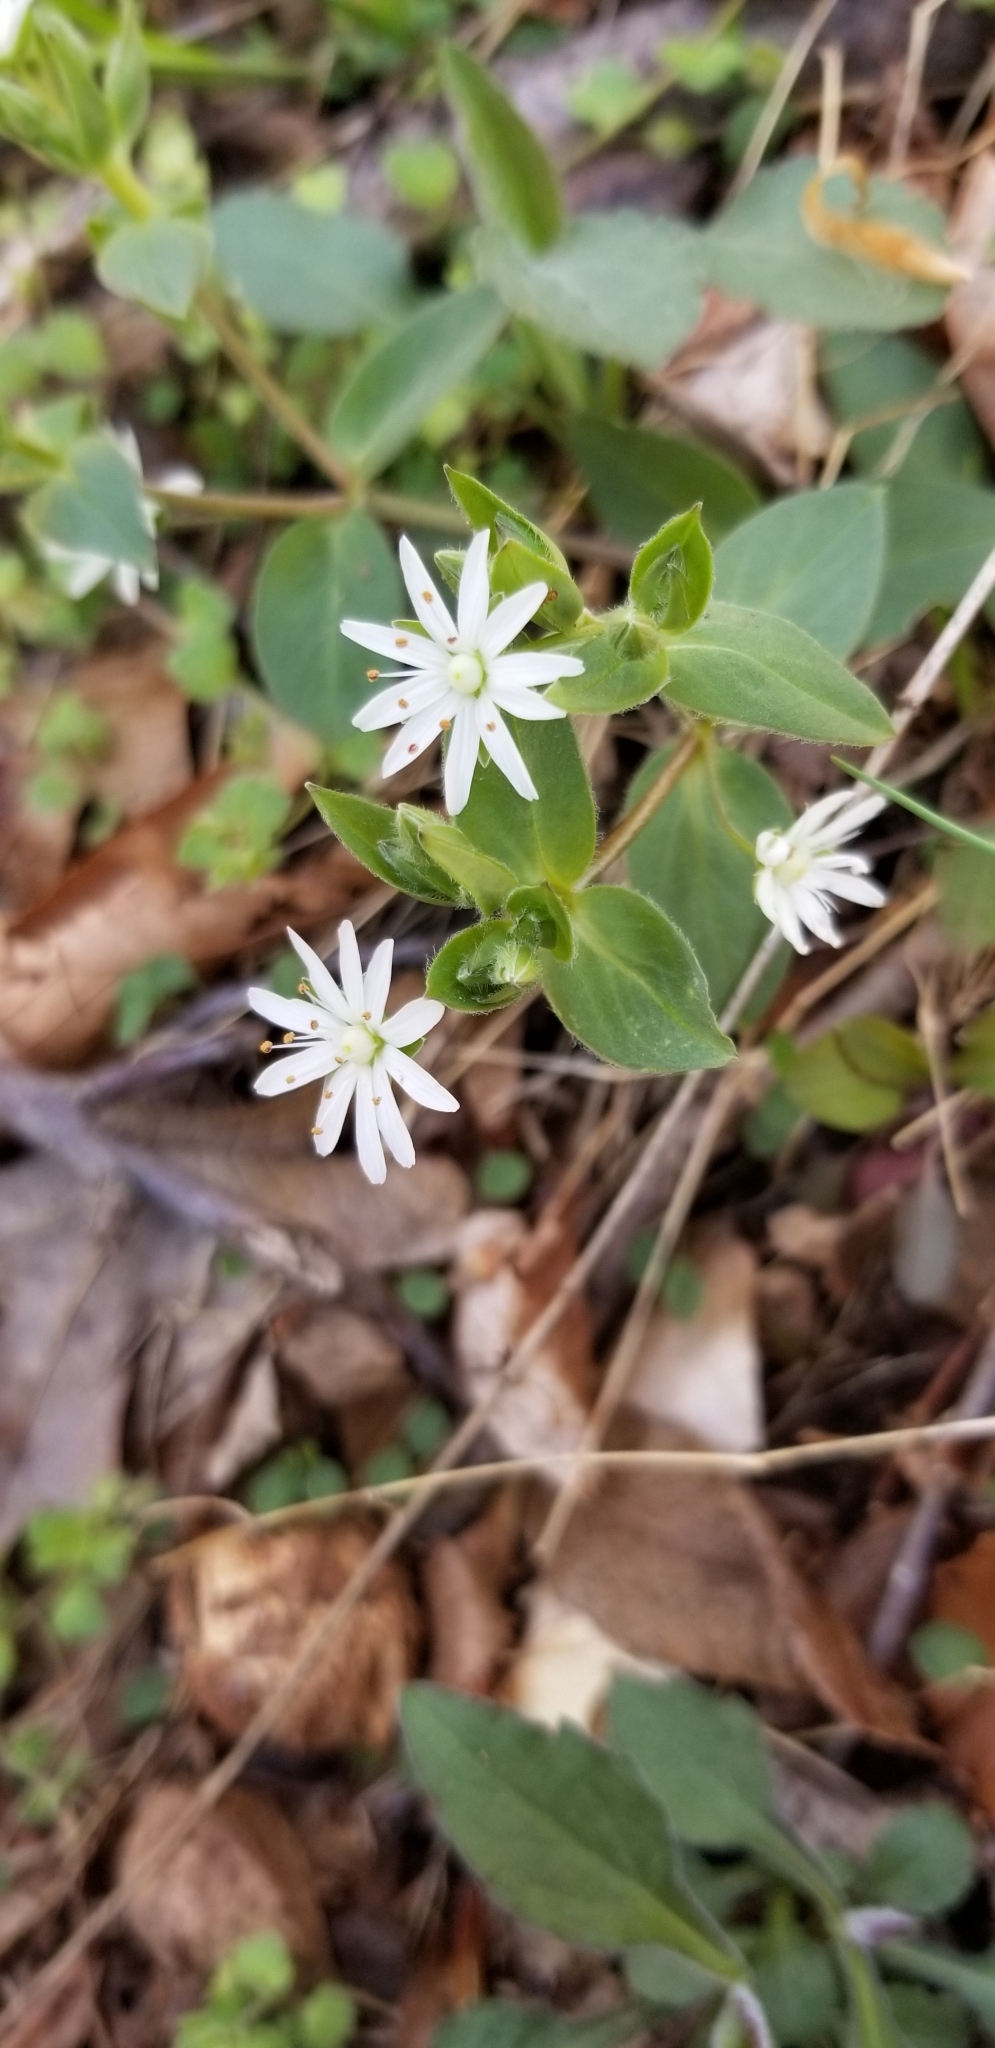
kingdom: Plantae
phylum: Tracheophyta
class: Magnoliopsida
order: Caryophyllales
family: Caryophyllaceae
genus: Stellaria
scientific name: Stellaria pubera
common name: Star chickweed
